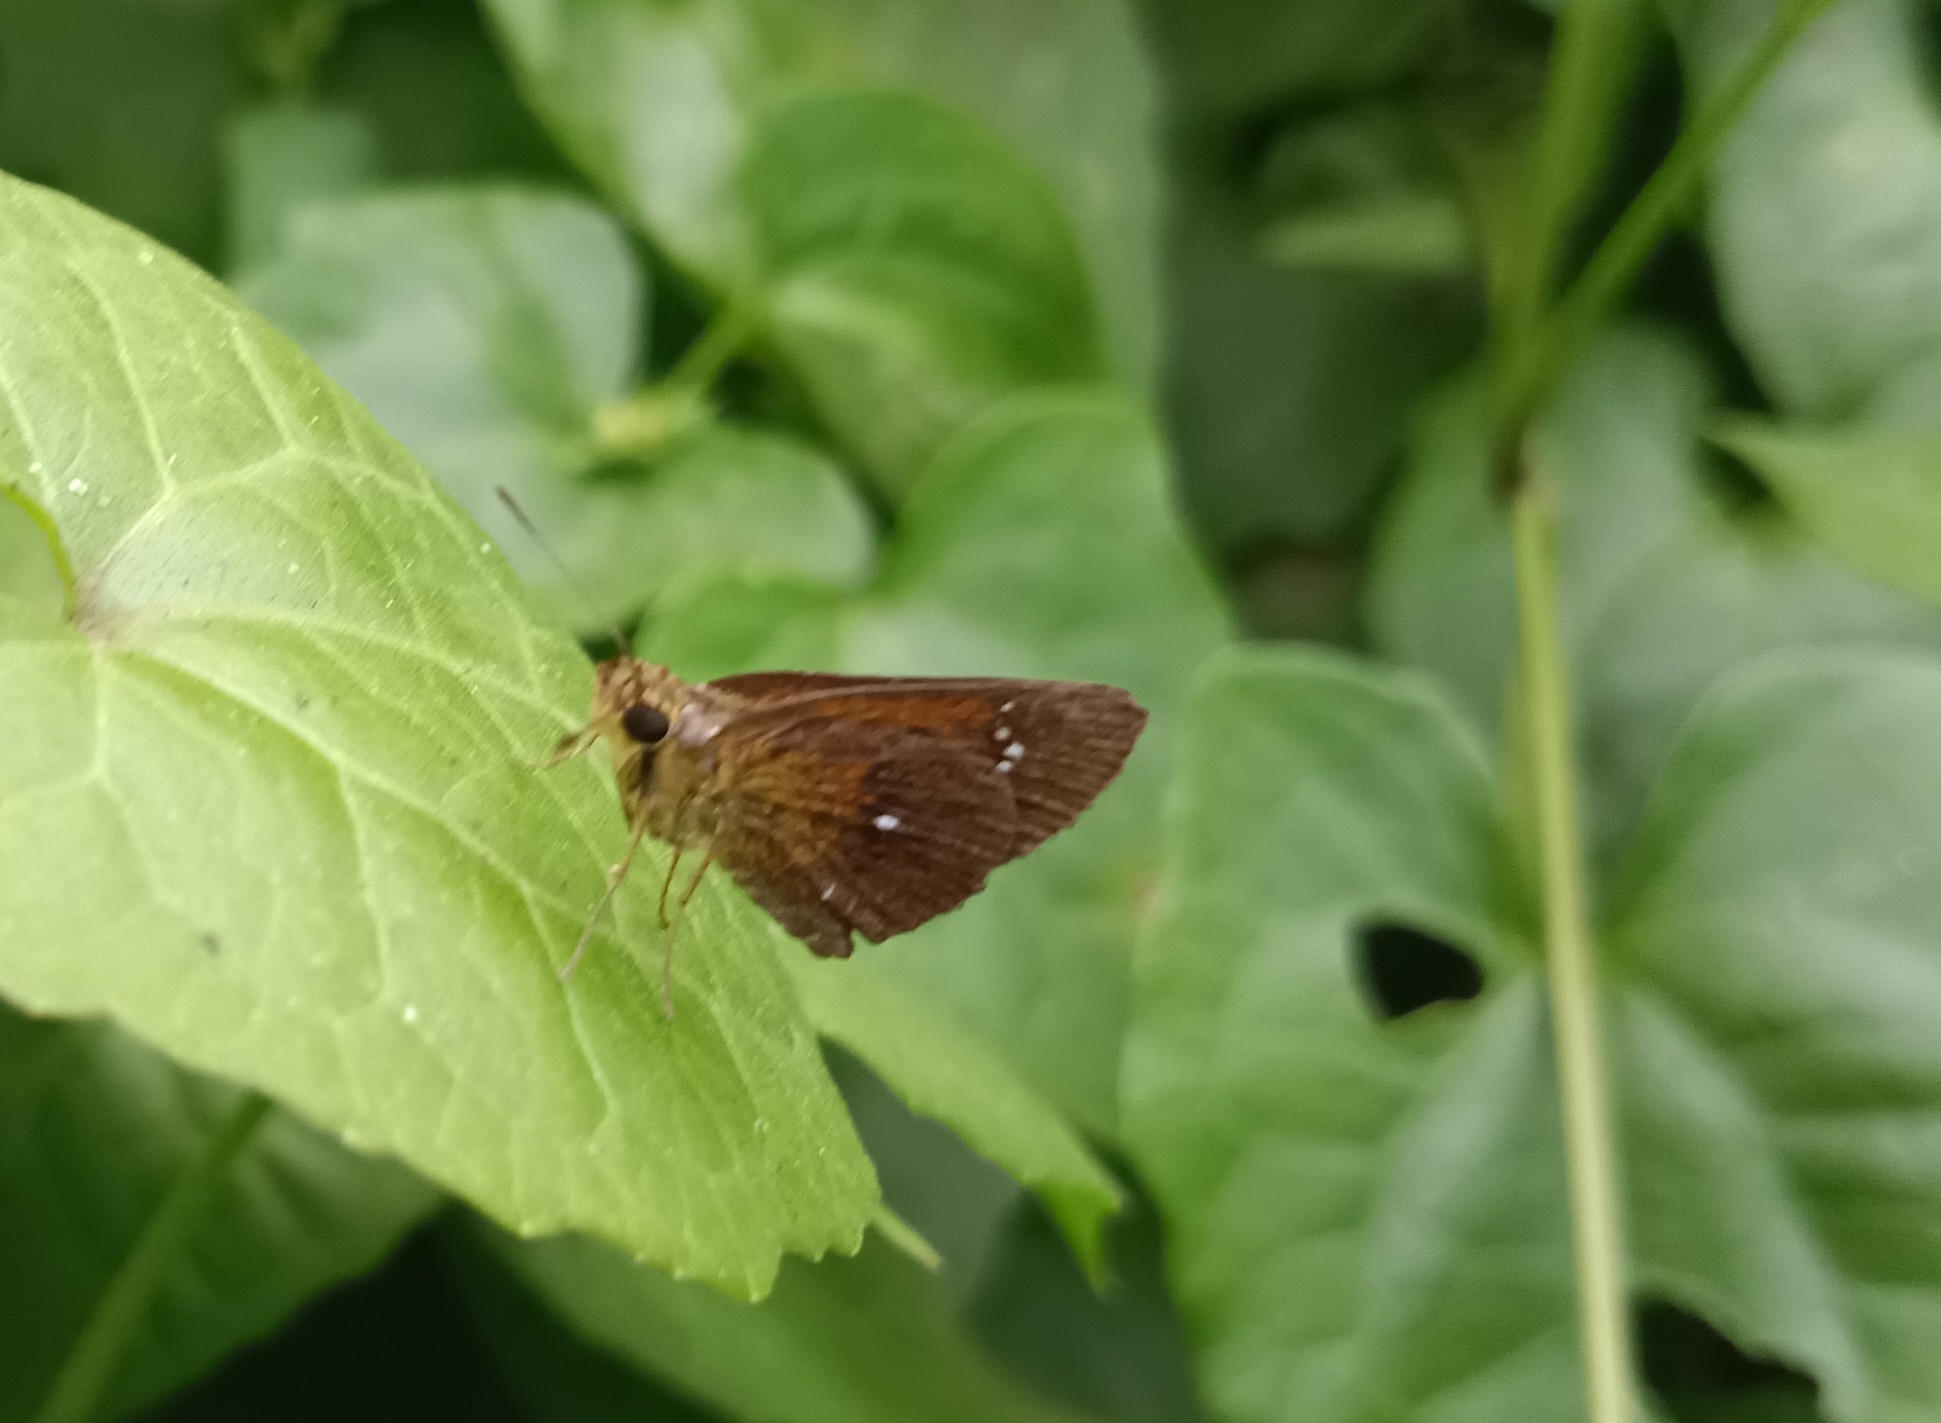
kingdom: Animalia
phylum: Arthropoda
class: Insecta
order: Lepidoptera
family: Hesperiidae
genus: Iambrix
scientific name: Iambrix salsala
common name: Chestnut bob
